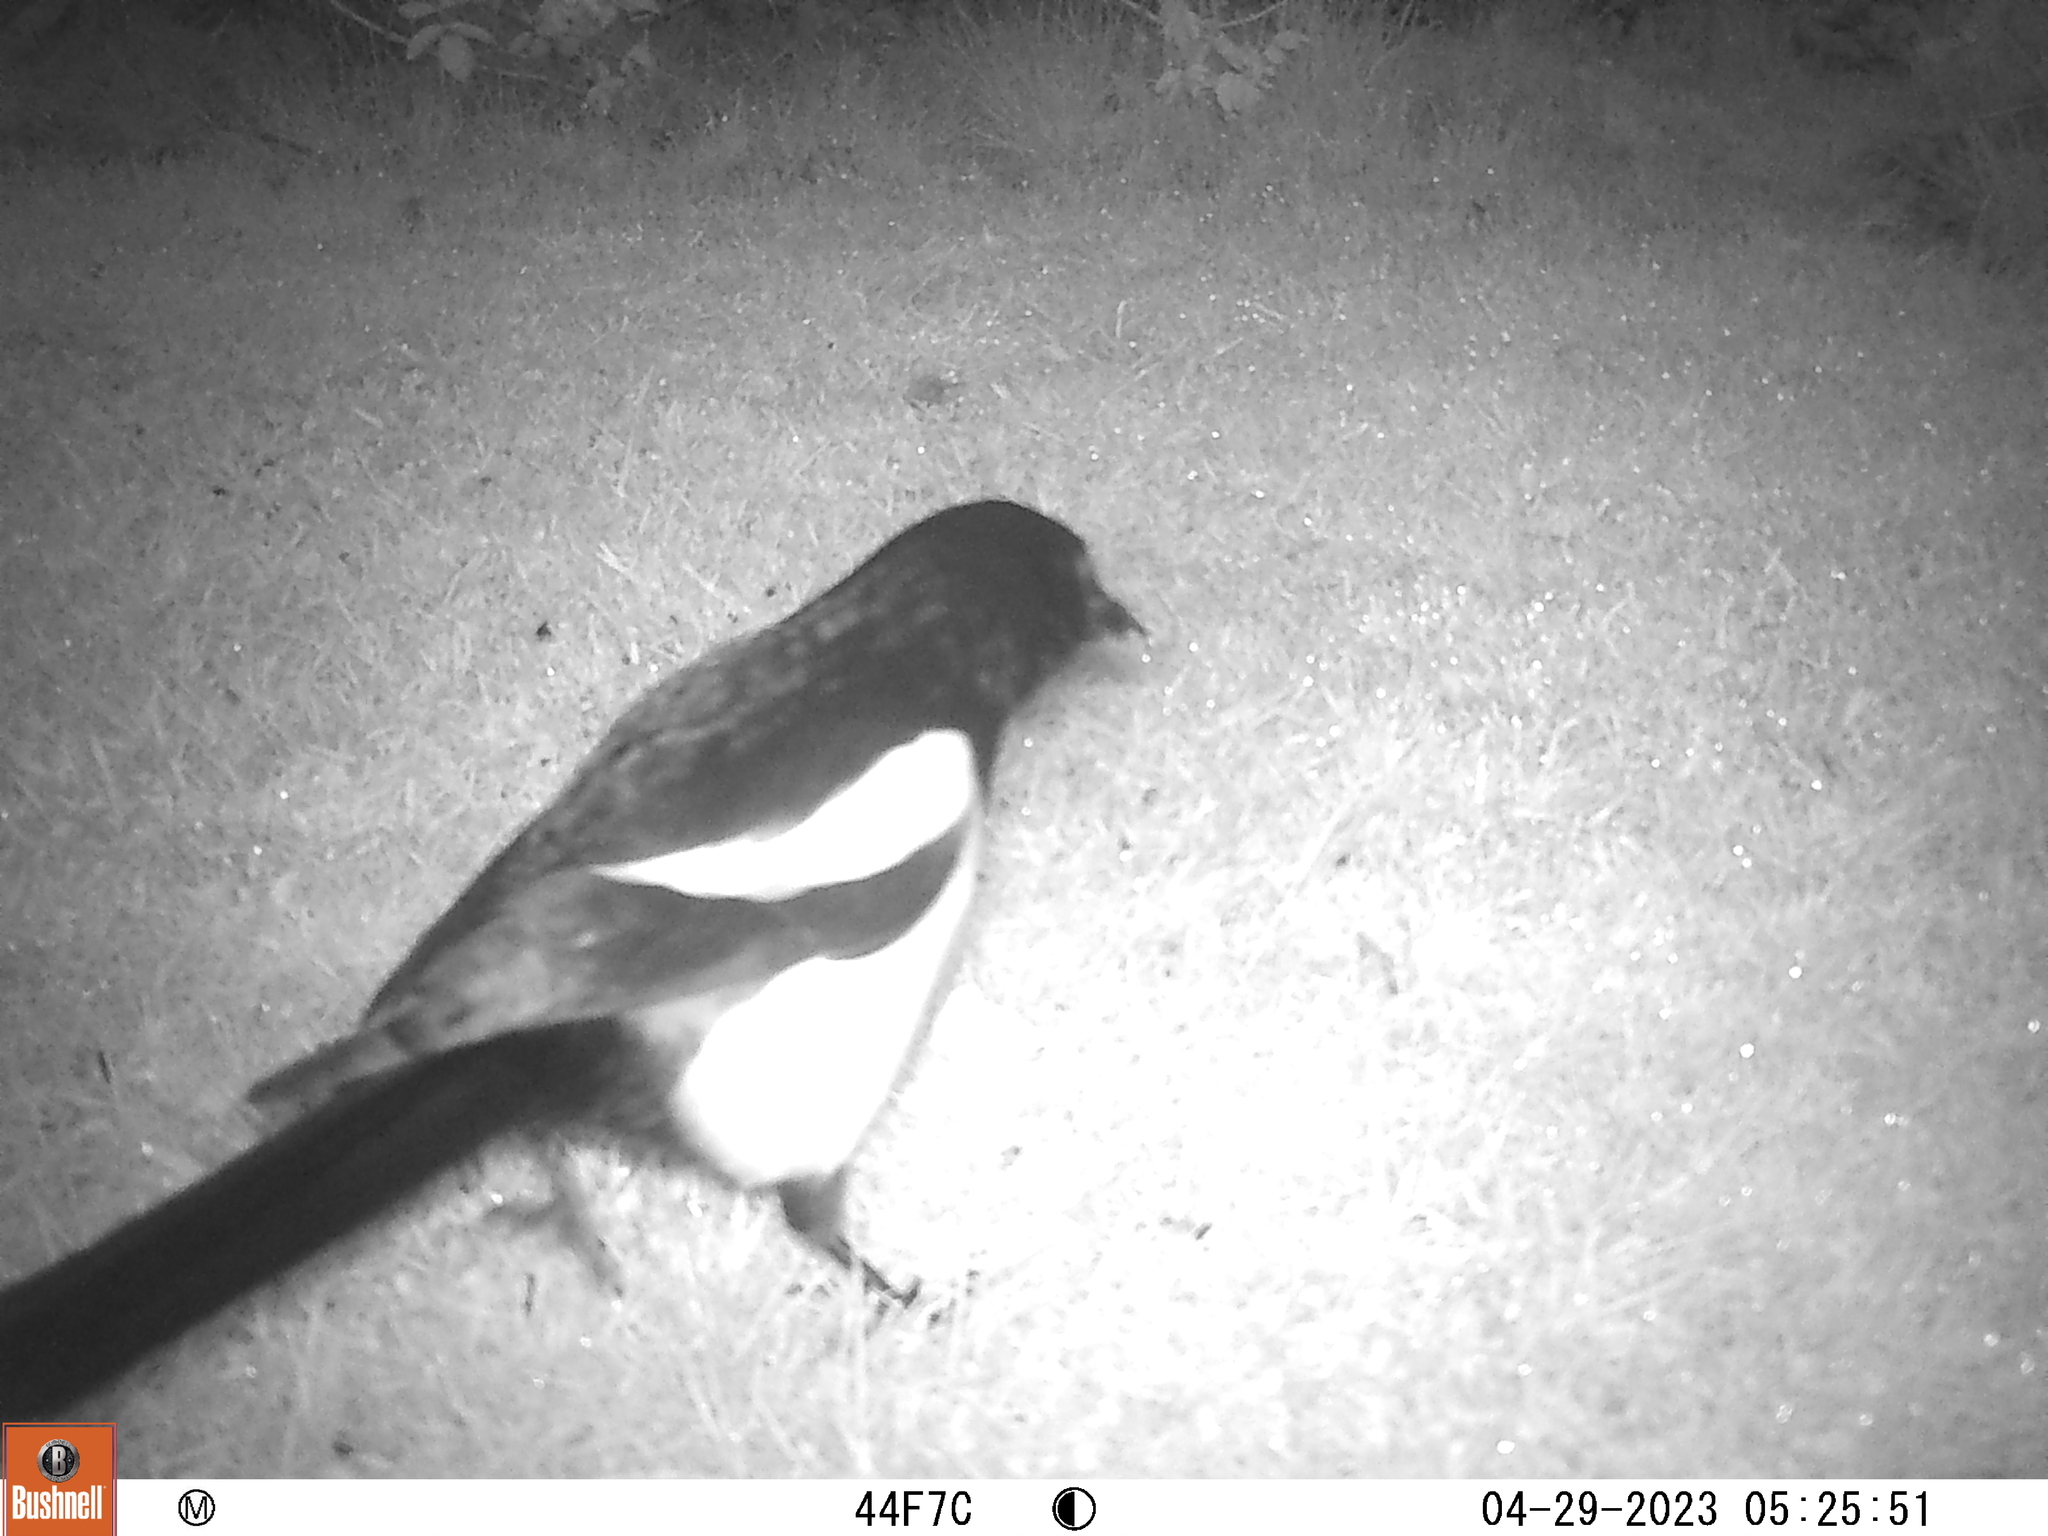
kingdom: Animalia
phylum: Chordata
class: Aves
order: Passeriformes
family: Corvidae
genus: Pica
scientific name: Pica pica
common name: Eurasian magpie
